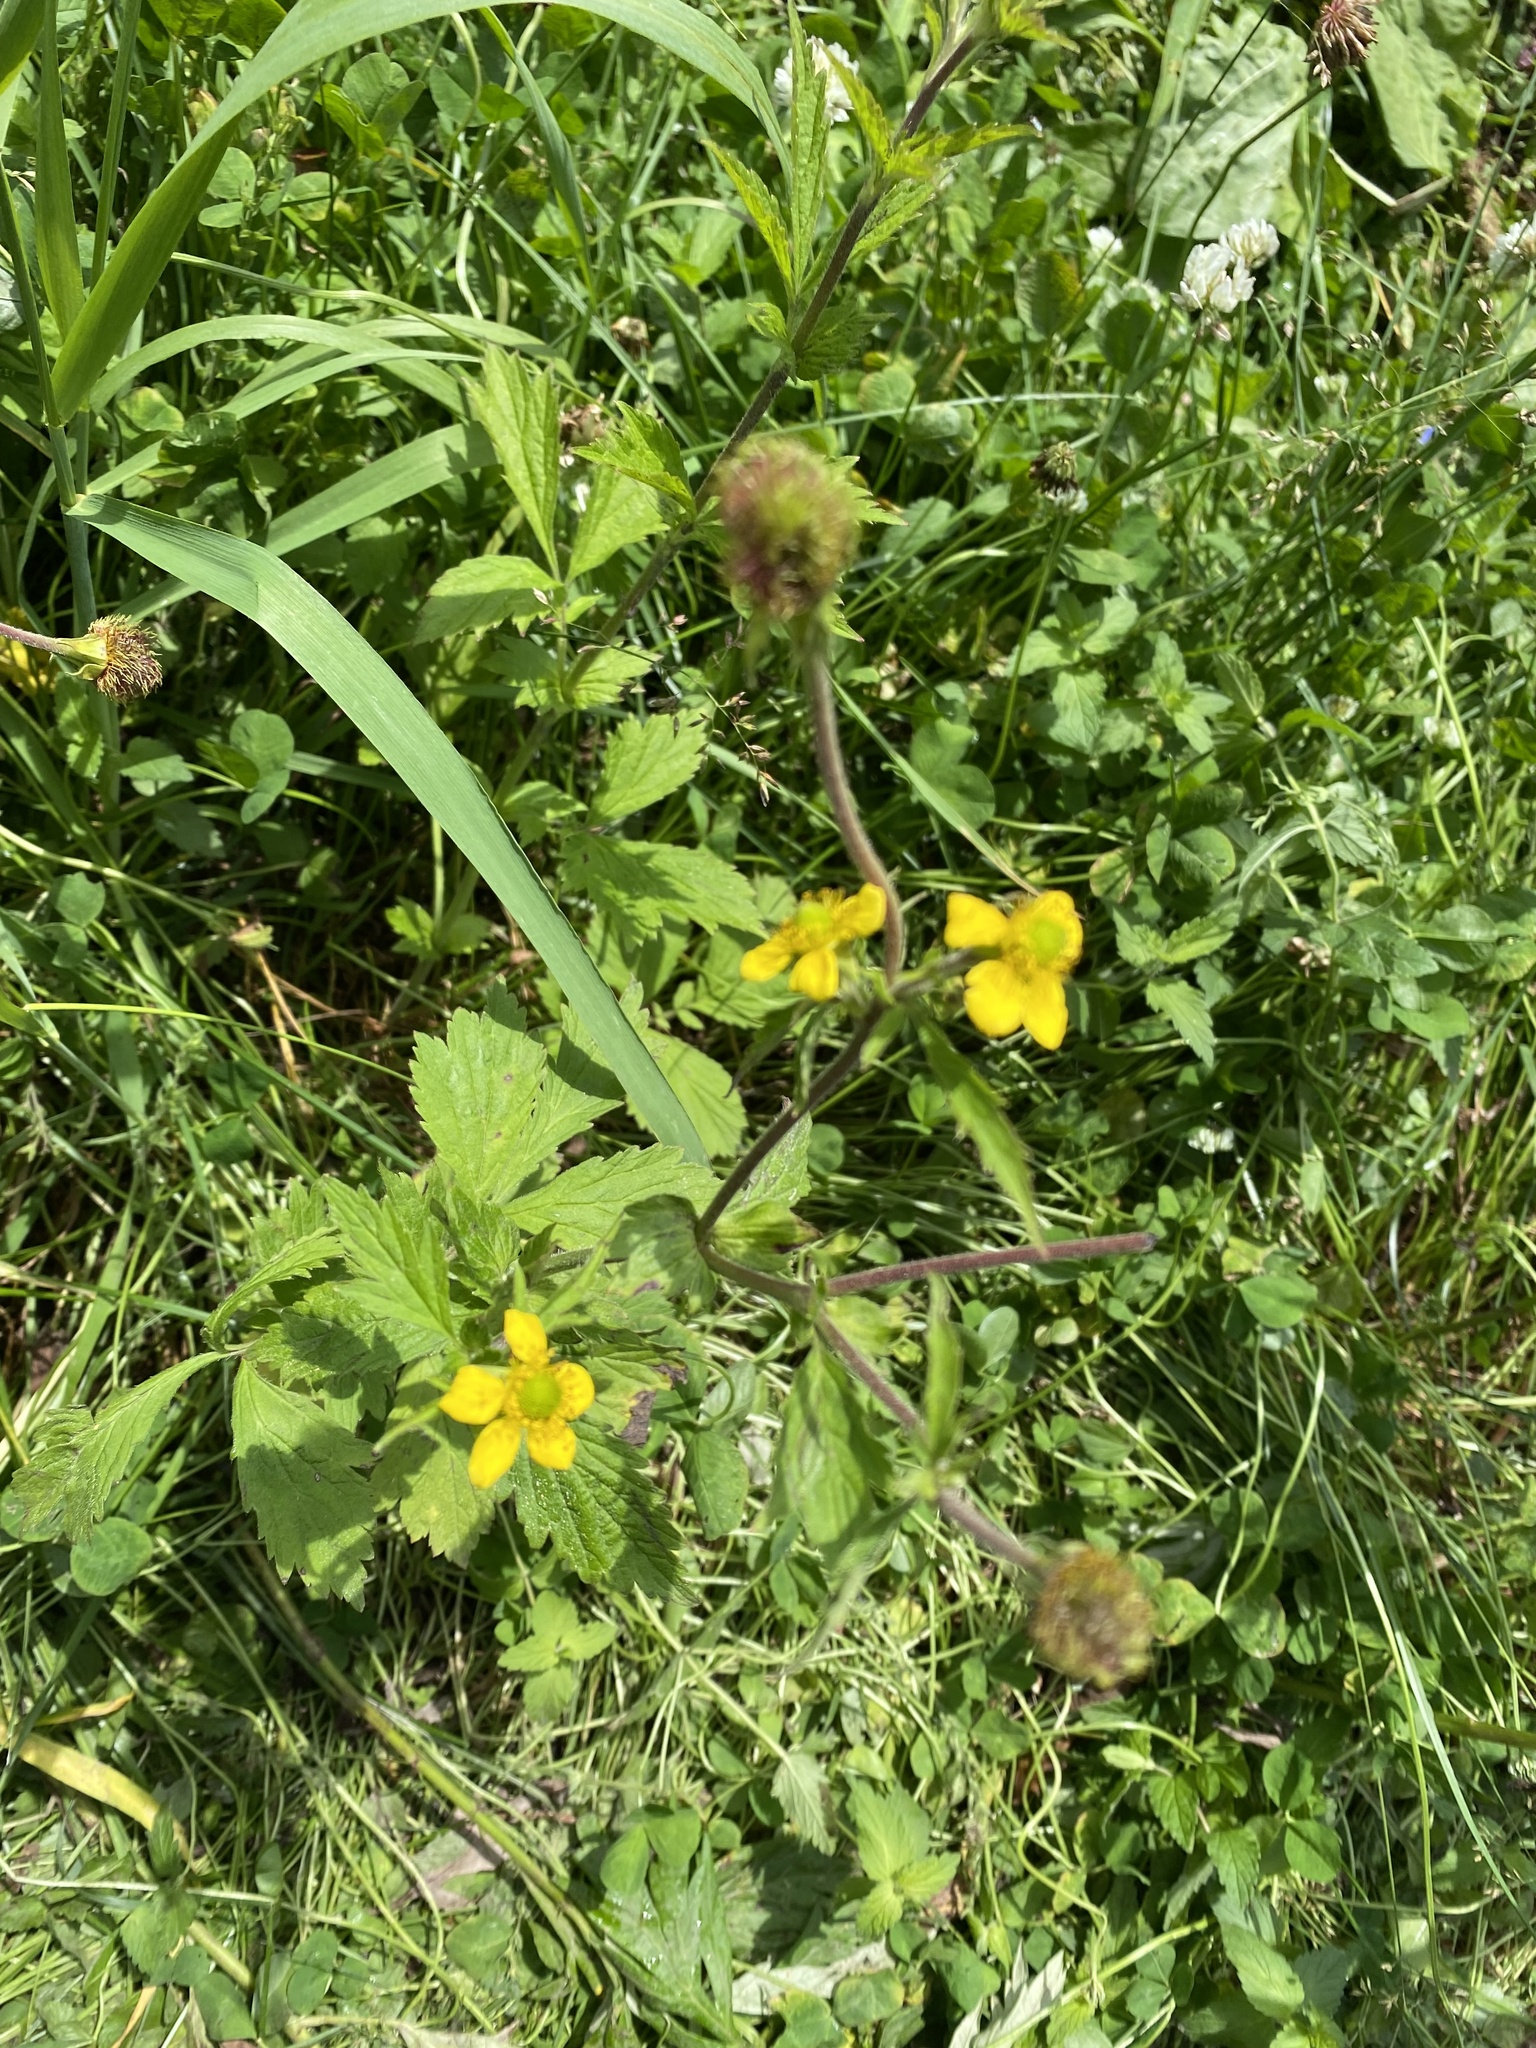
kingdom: Plantae
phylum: Tracheophyta
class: Magnoliopsida
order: Rosales
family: Rosaceae
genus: Geum
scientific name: Geum aleppicum
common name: Yellow avens
